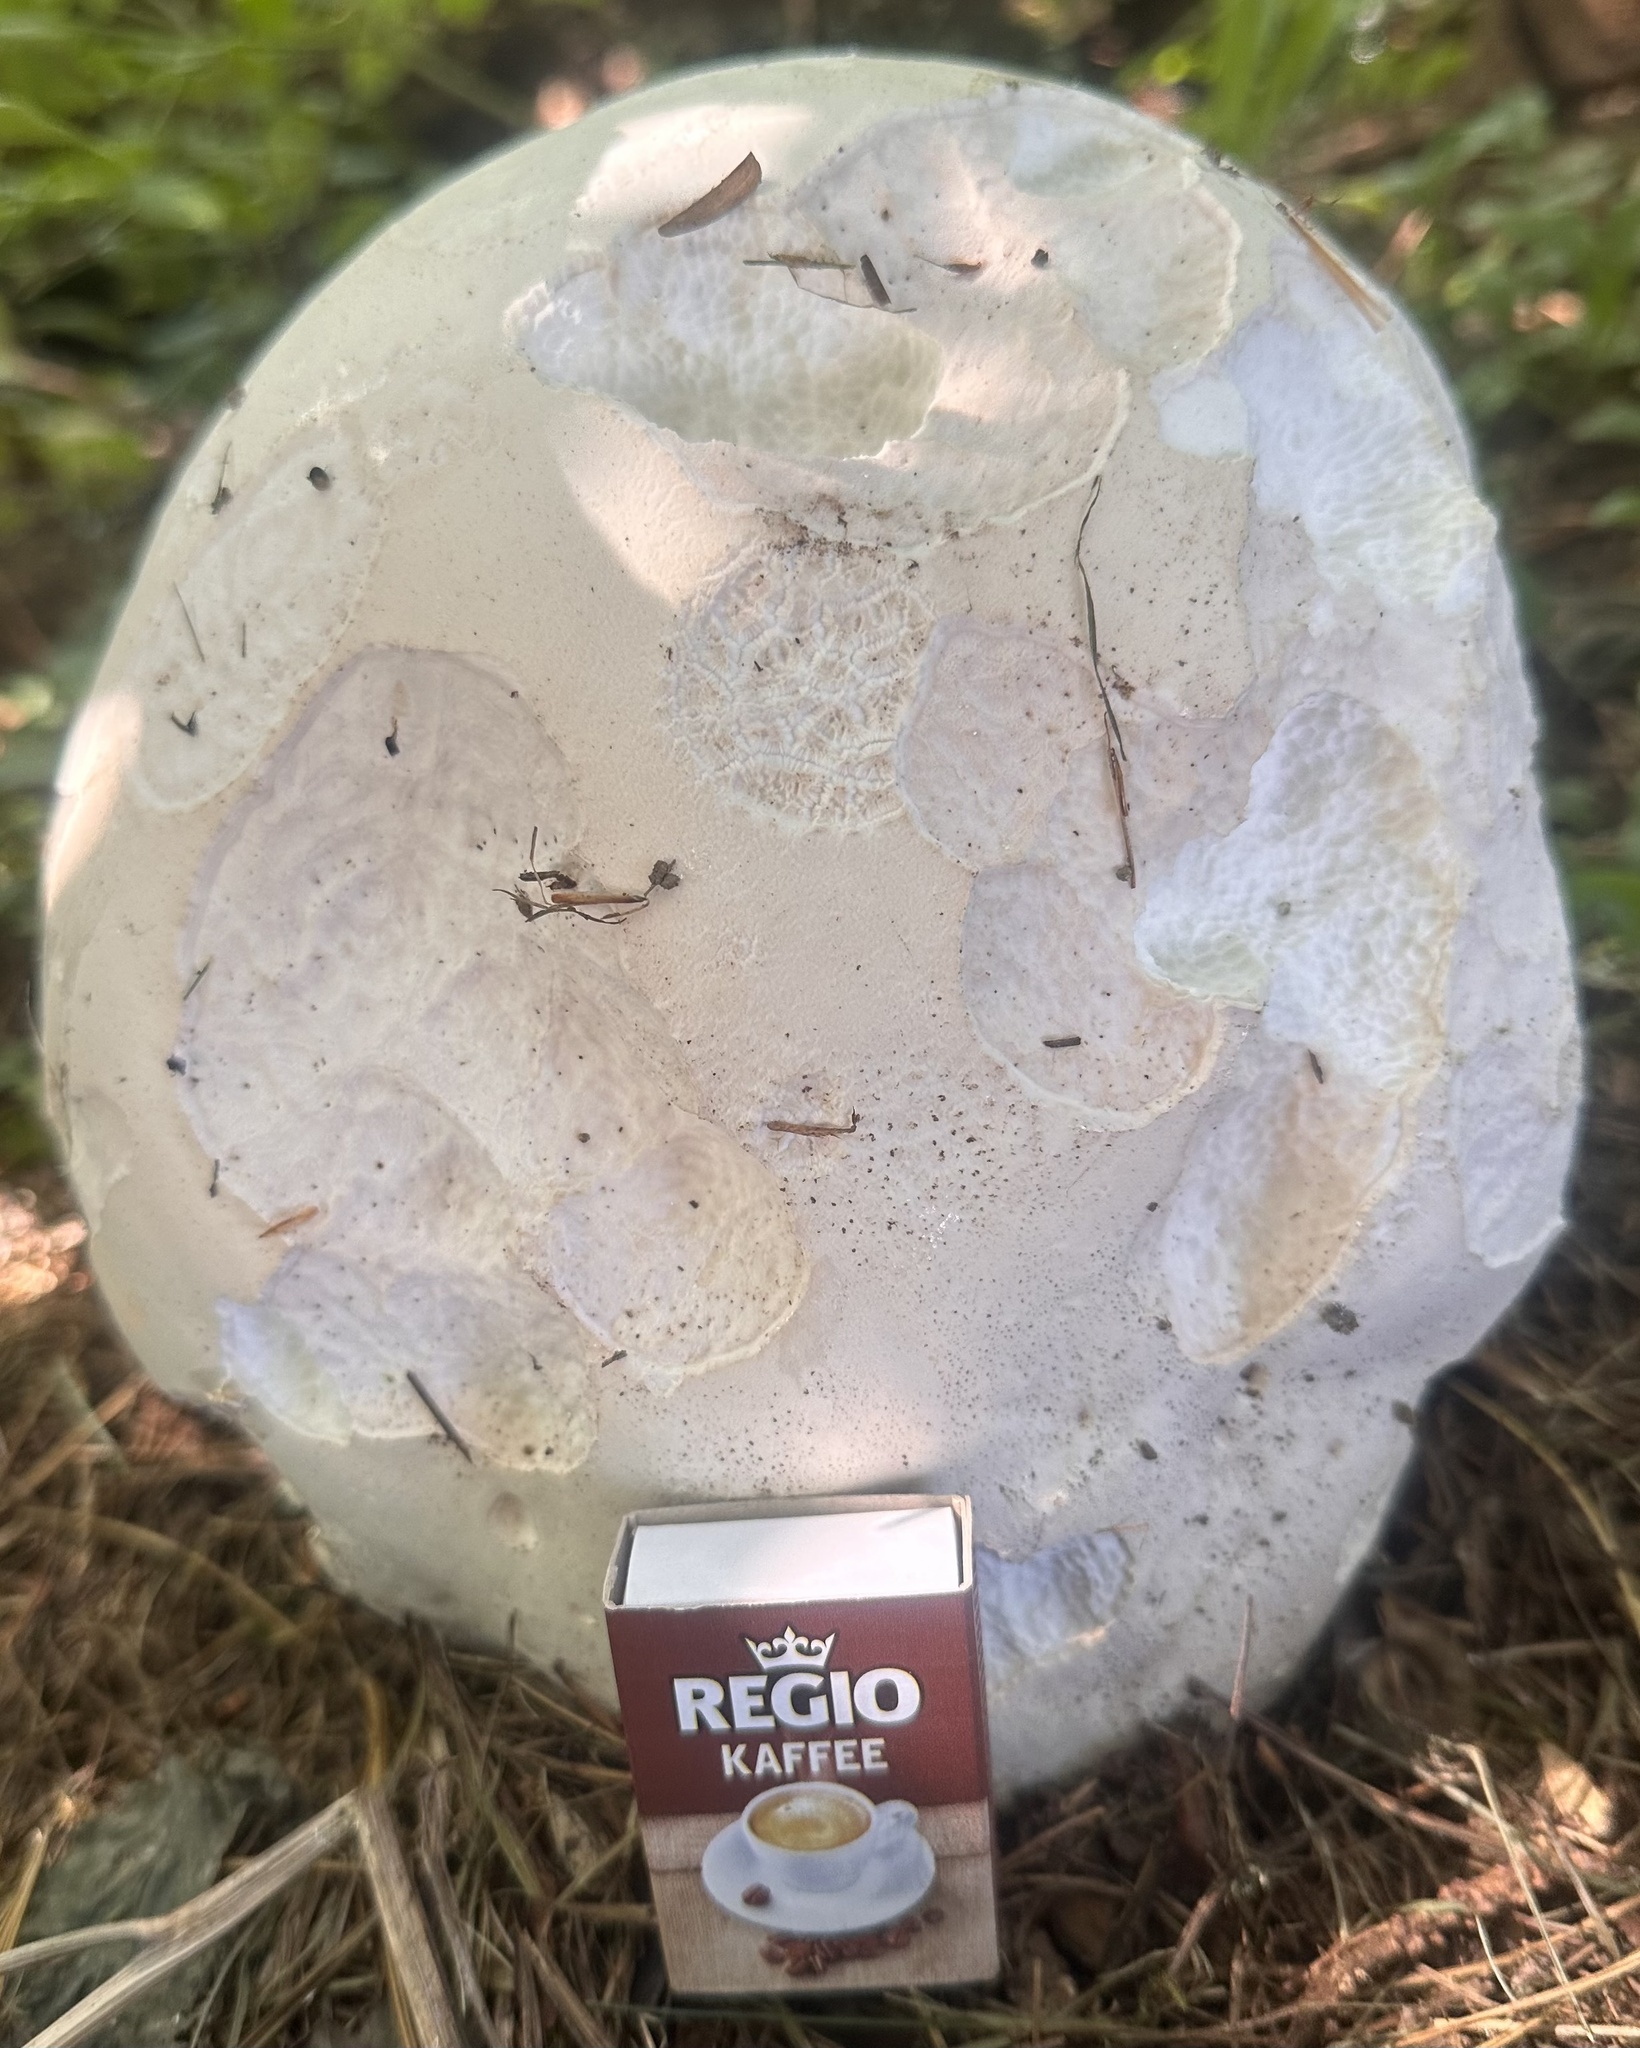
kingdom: Fungi
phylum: Basidiomycota
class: Agaricomycetes
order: Agaricales
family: Lycoperdaceae
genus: Calvatia
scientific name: Calvatia gigantea
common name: Giant puffball
